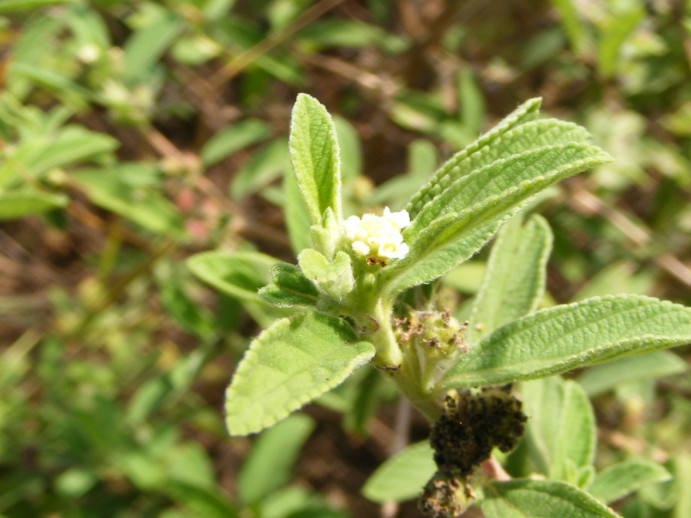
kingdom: Plantae
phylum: Tracheophyta
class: Magnoliopsida
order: Lamiales
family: Verbenaceae
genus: Lippia
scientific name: Lippia javanica
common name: Lemonbush
